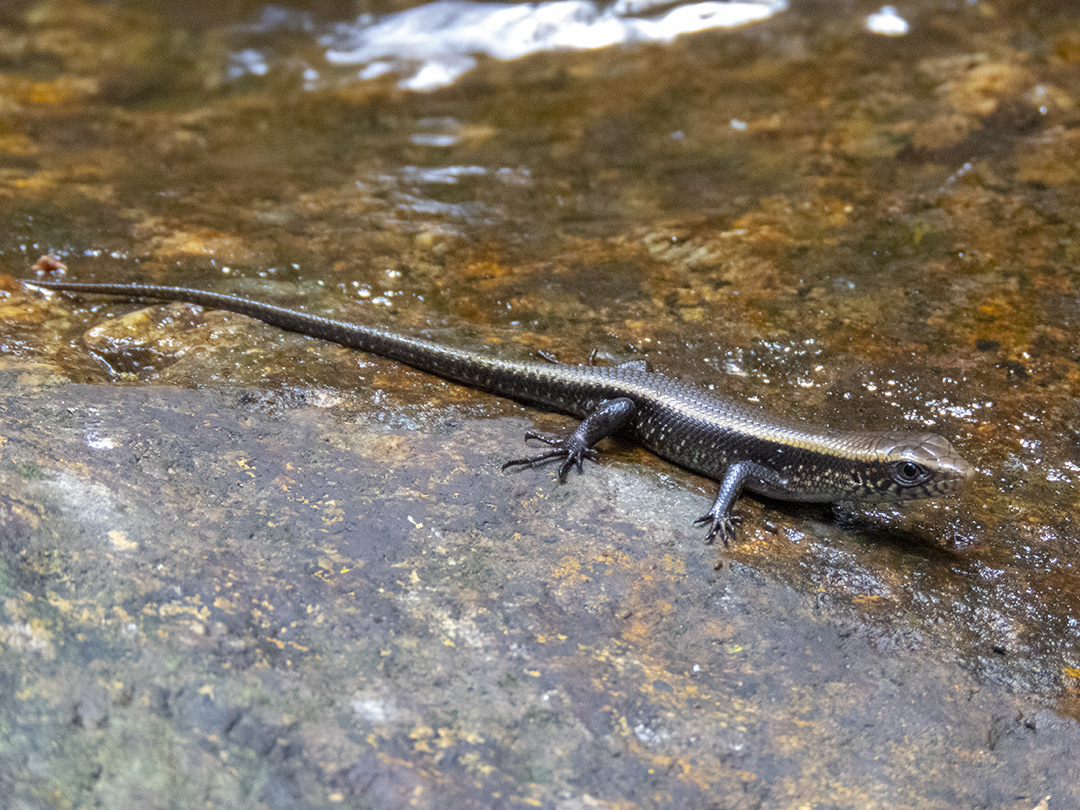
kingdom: Animalia
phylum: Chordata
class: Squamata
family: Scincidae
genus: Eutropis
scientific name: Eutropis multifasciata
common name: Common mabuya
